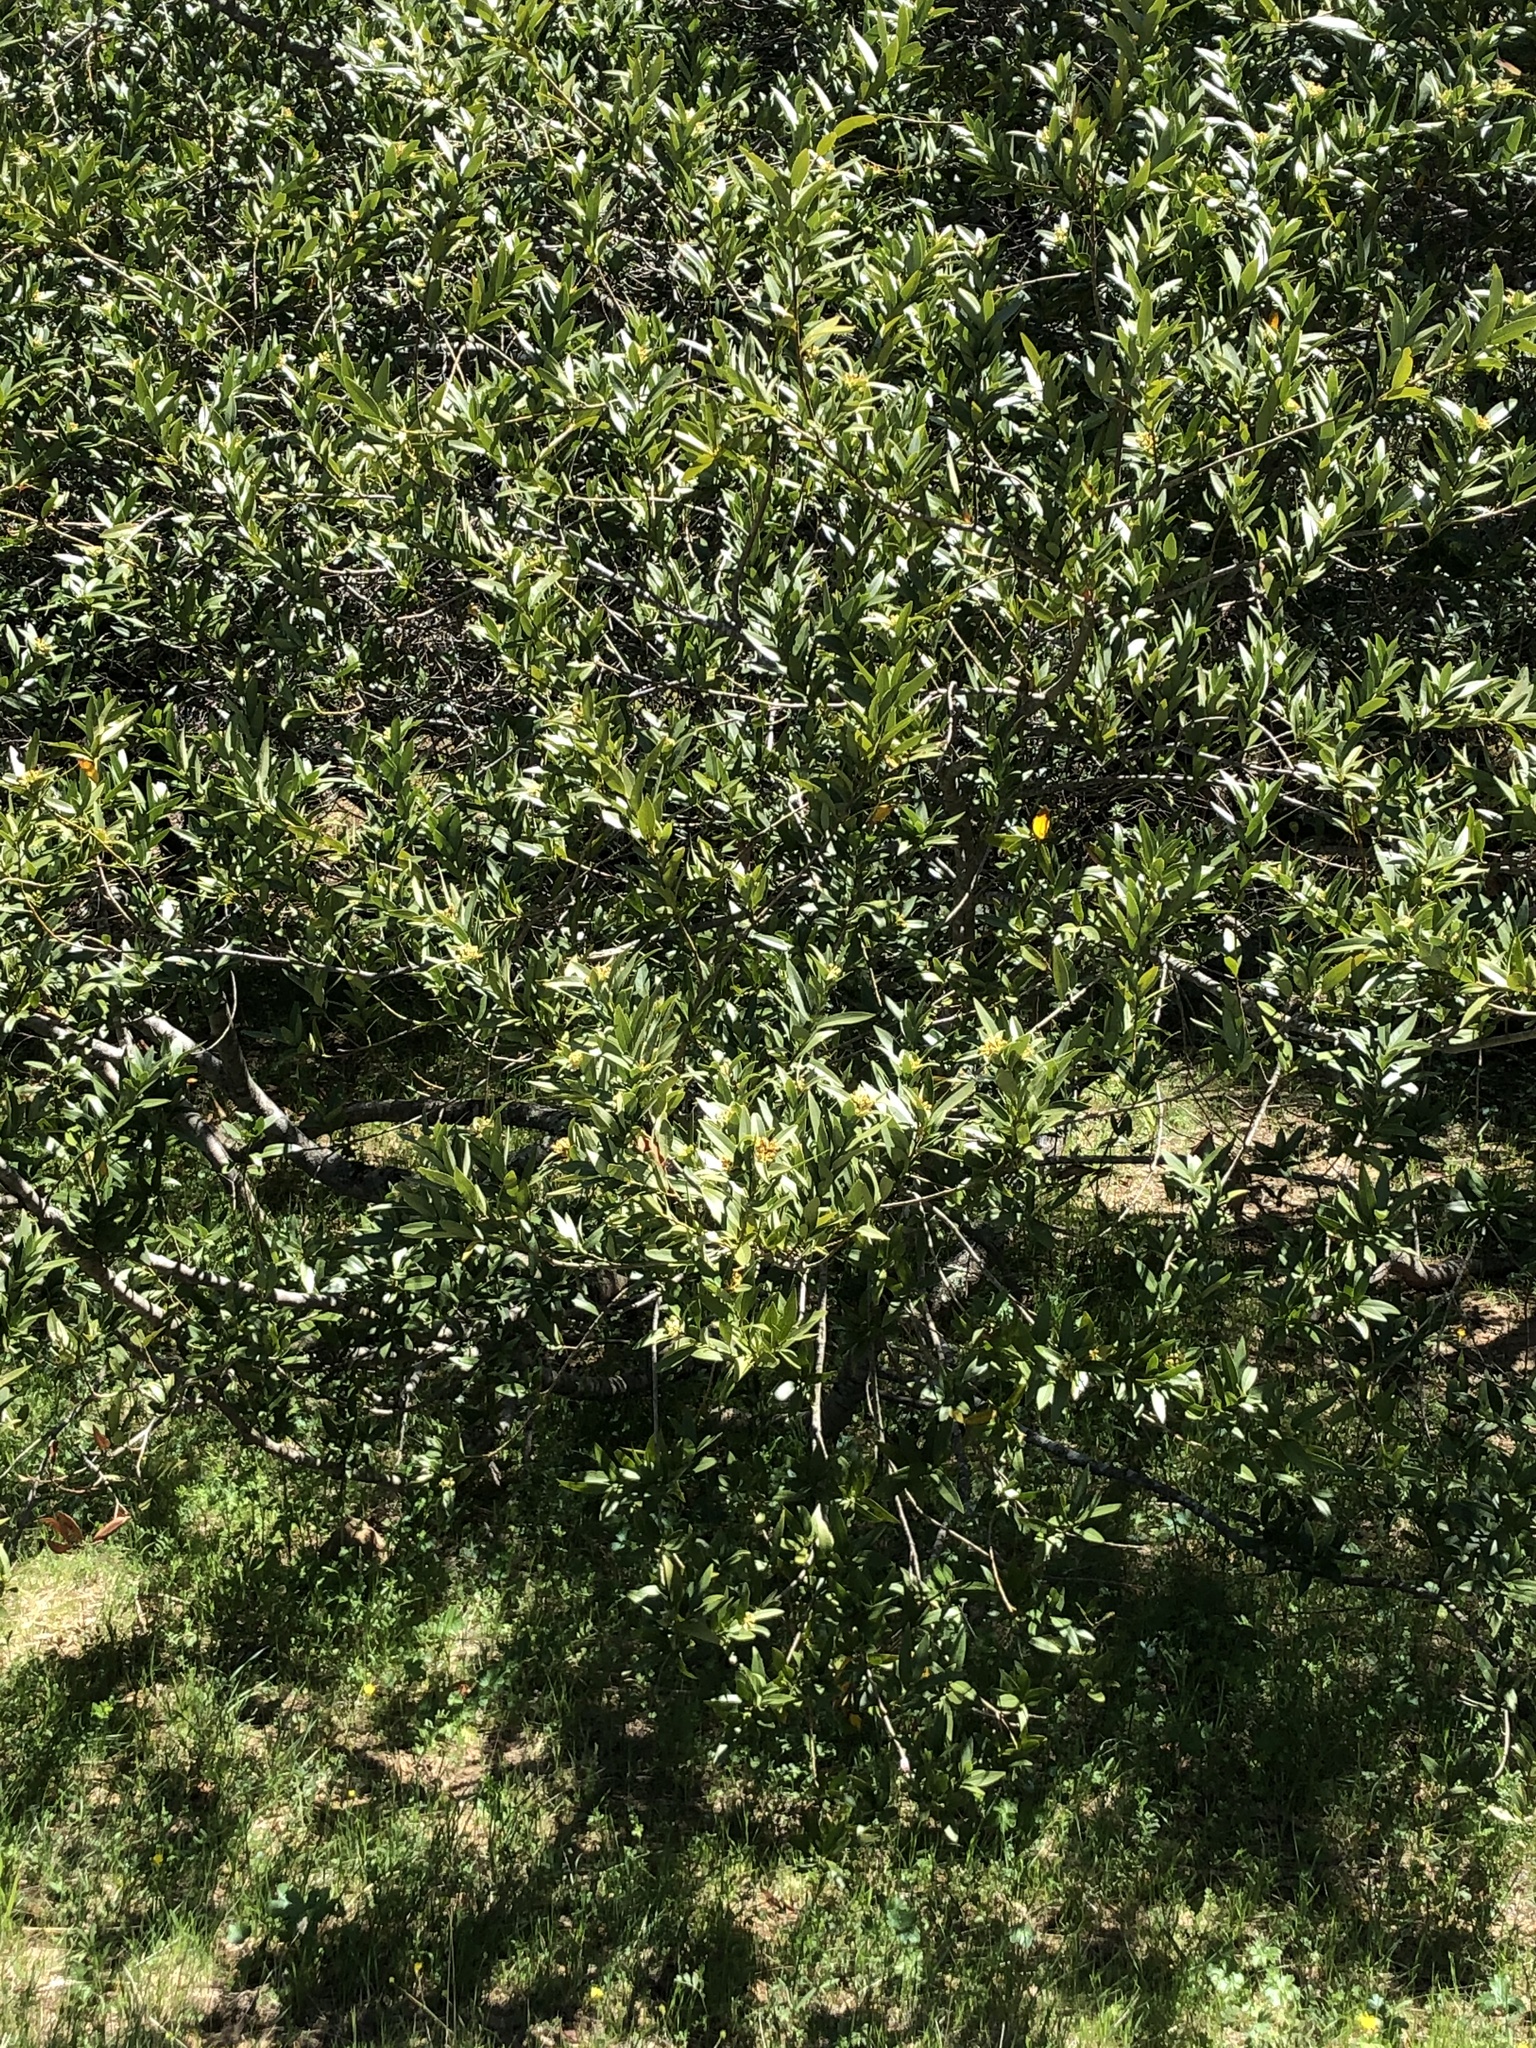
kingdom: Plantae
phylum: Tracheophyta
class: Magnoliopsida
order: Laurales
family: Lauraceae
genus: Umbellularia
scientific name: Umbellularia californica
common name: California bay
